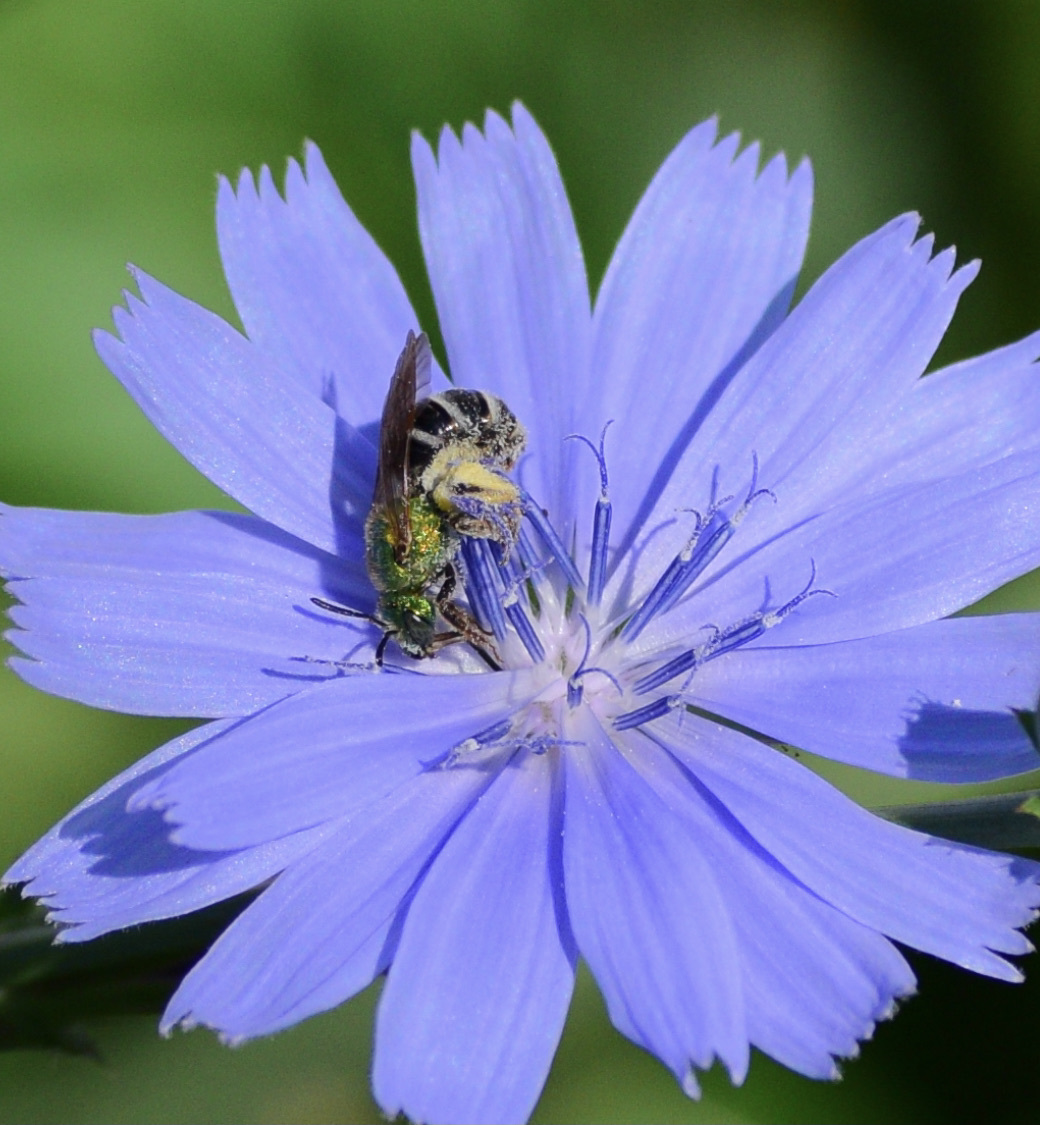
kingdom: Animalia
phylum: Arthropoda
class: Insecta
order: Hymenoptera
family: Halictidae
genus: Agapostemon
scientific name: Agapostemon virescens
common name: Bicolored striped sweat bee
